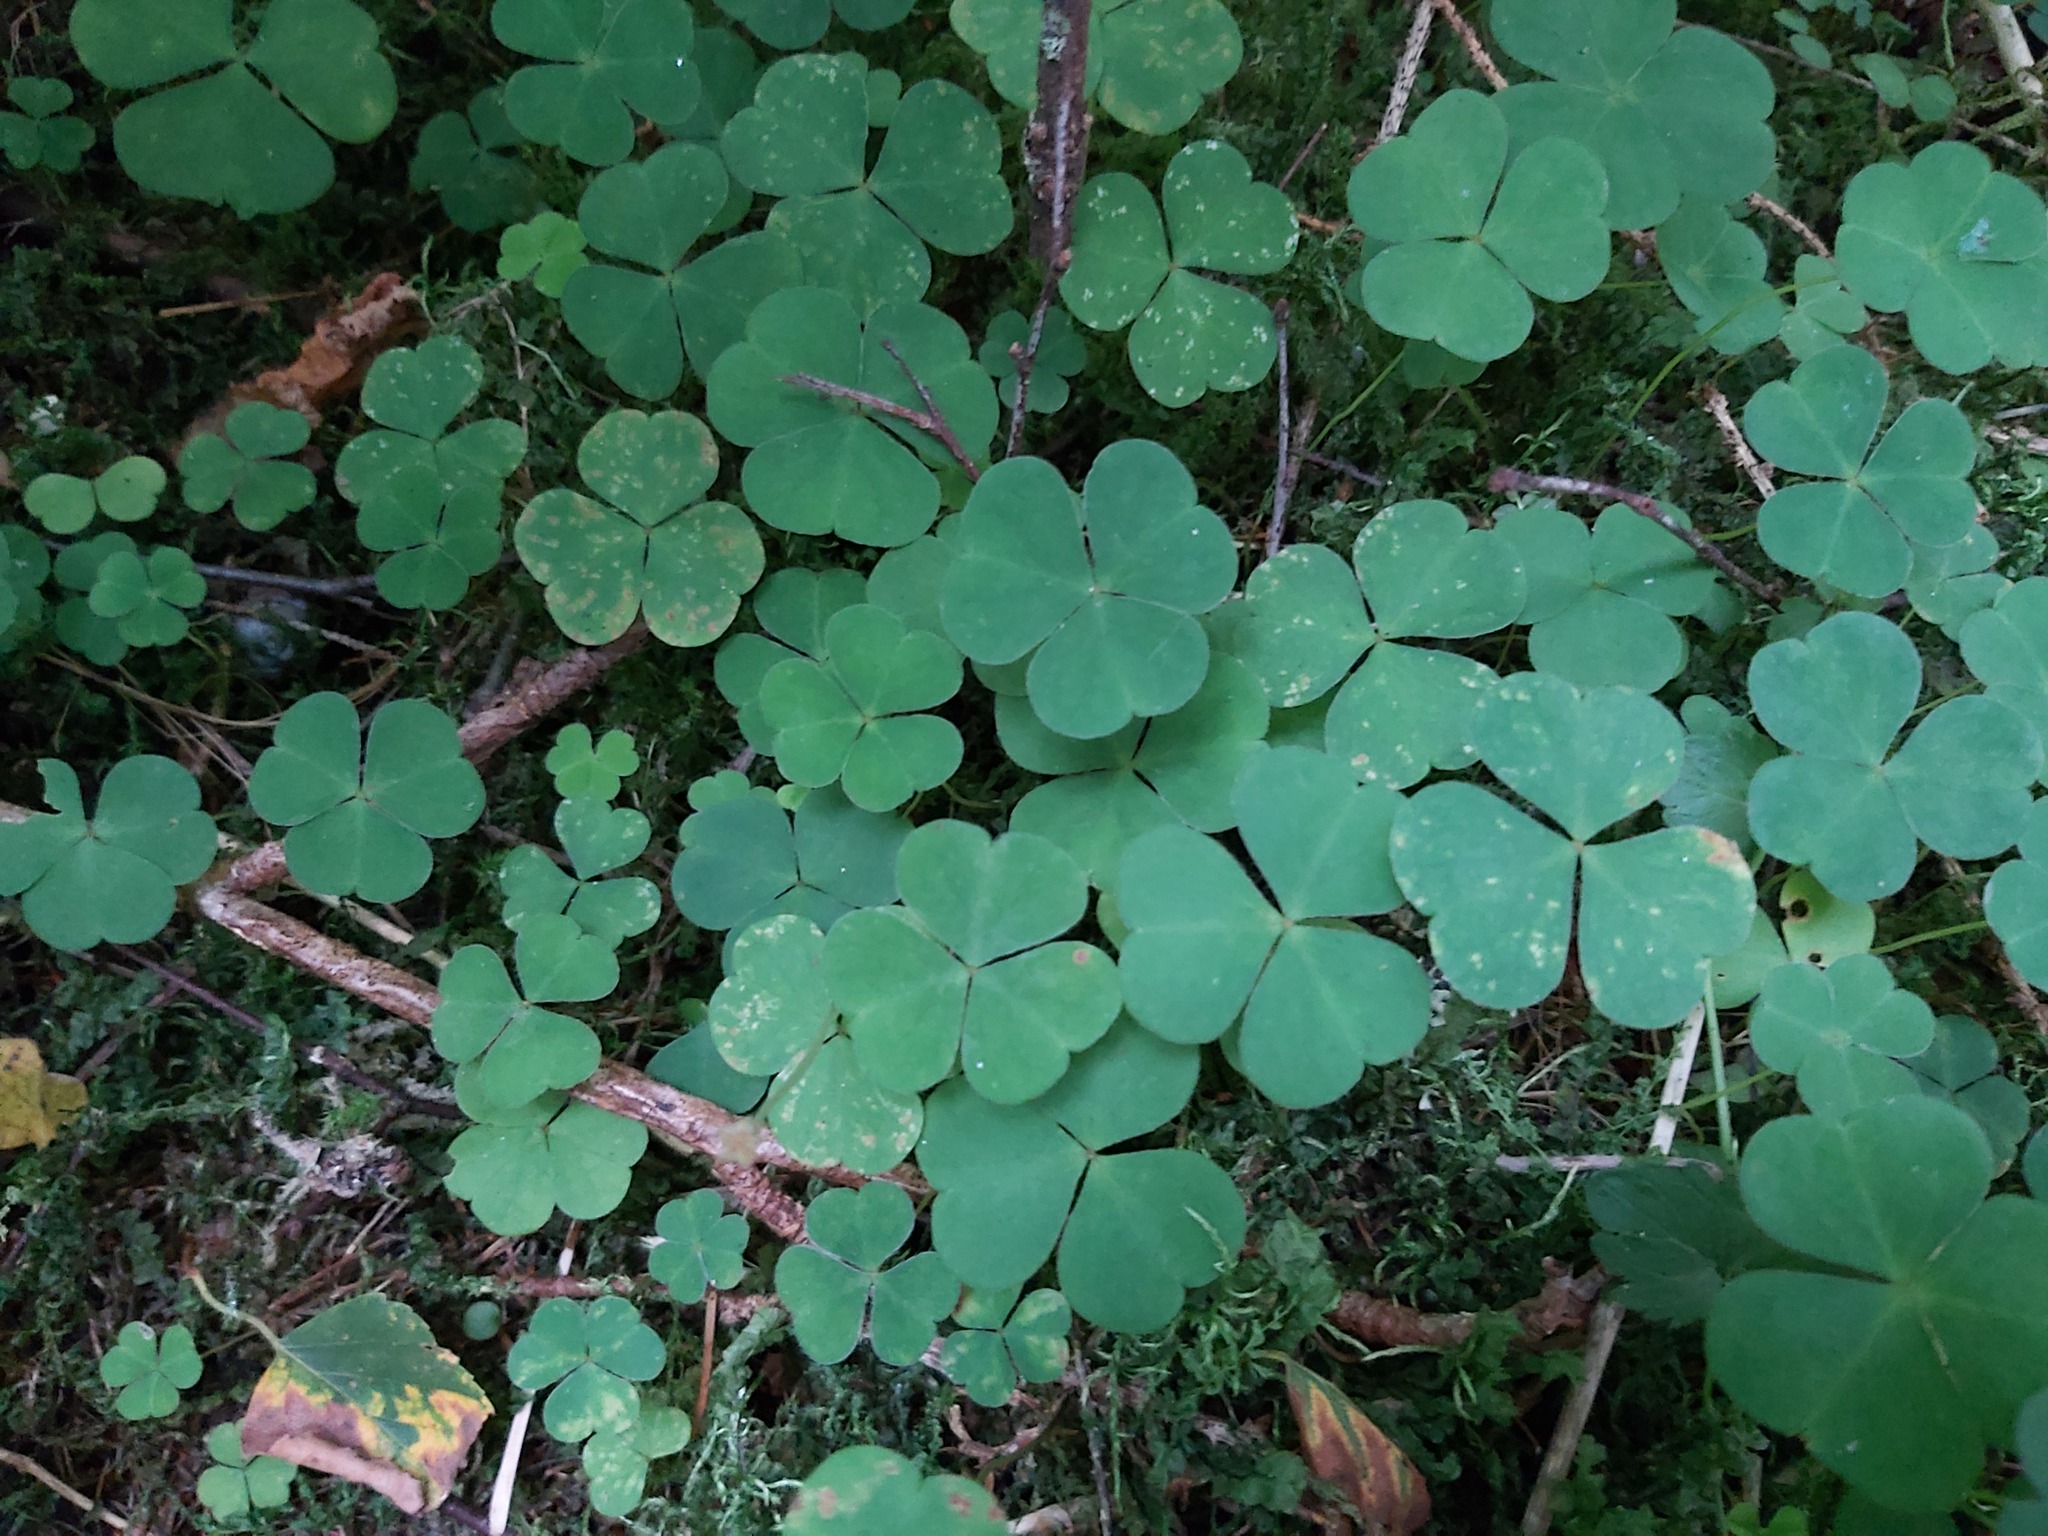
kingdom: Plantae
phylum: Tracheophyta
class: Magnoliopsida
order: Oxalidales
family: Oxalidaceae
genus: Oxalis
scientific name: Oxalis acetosella
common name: Wood-sorrel
